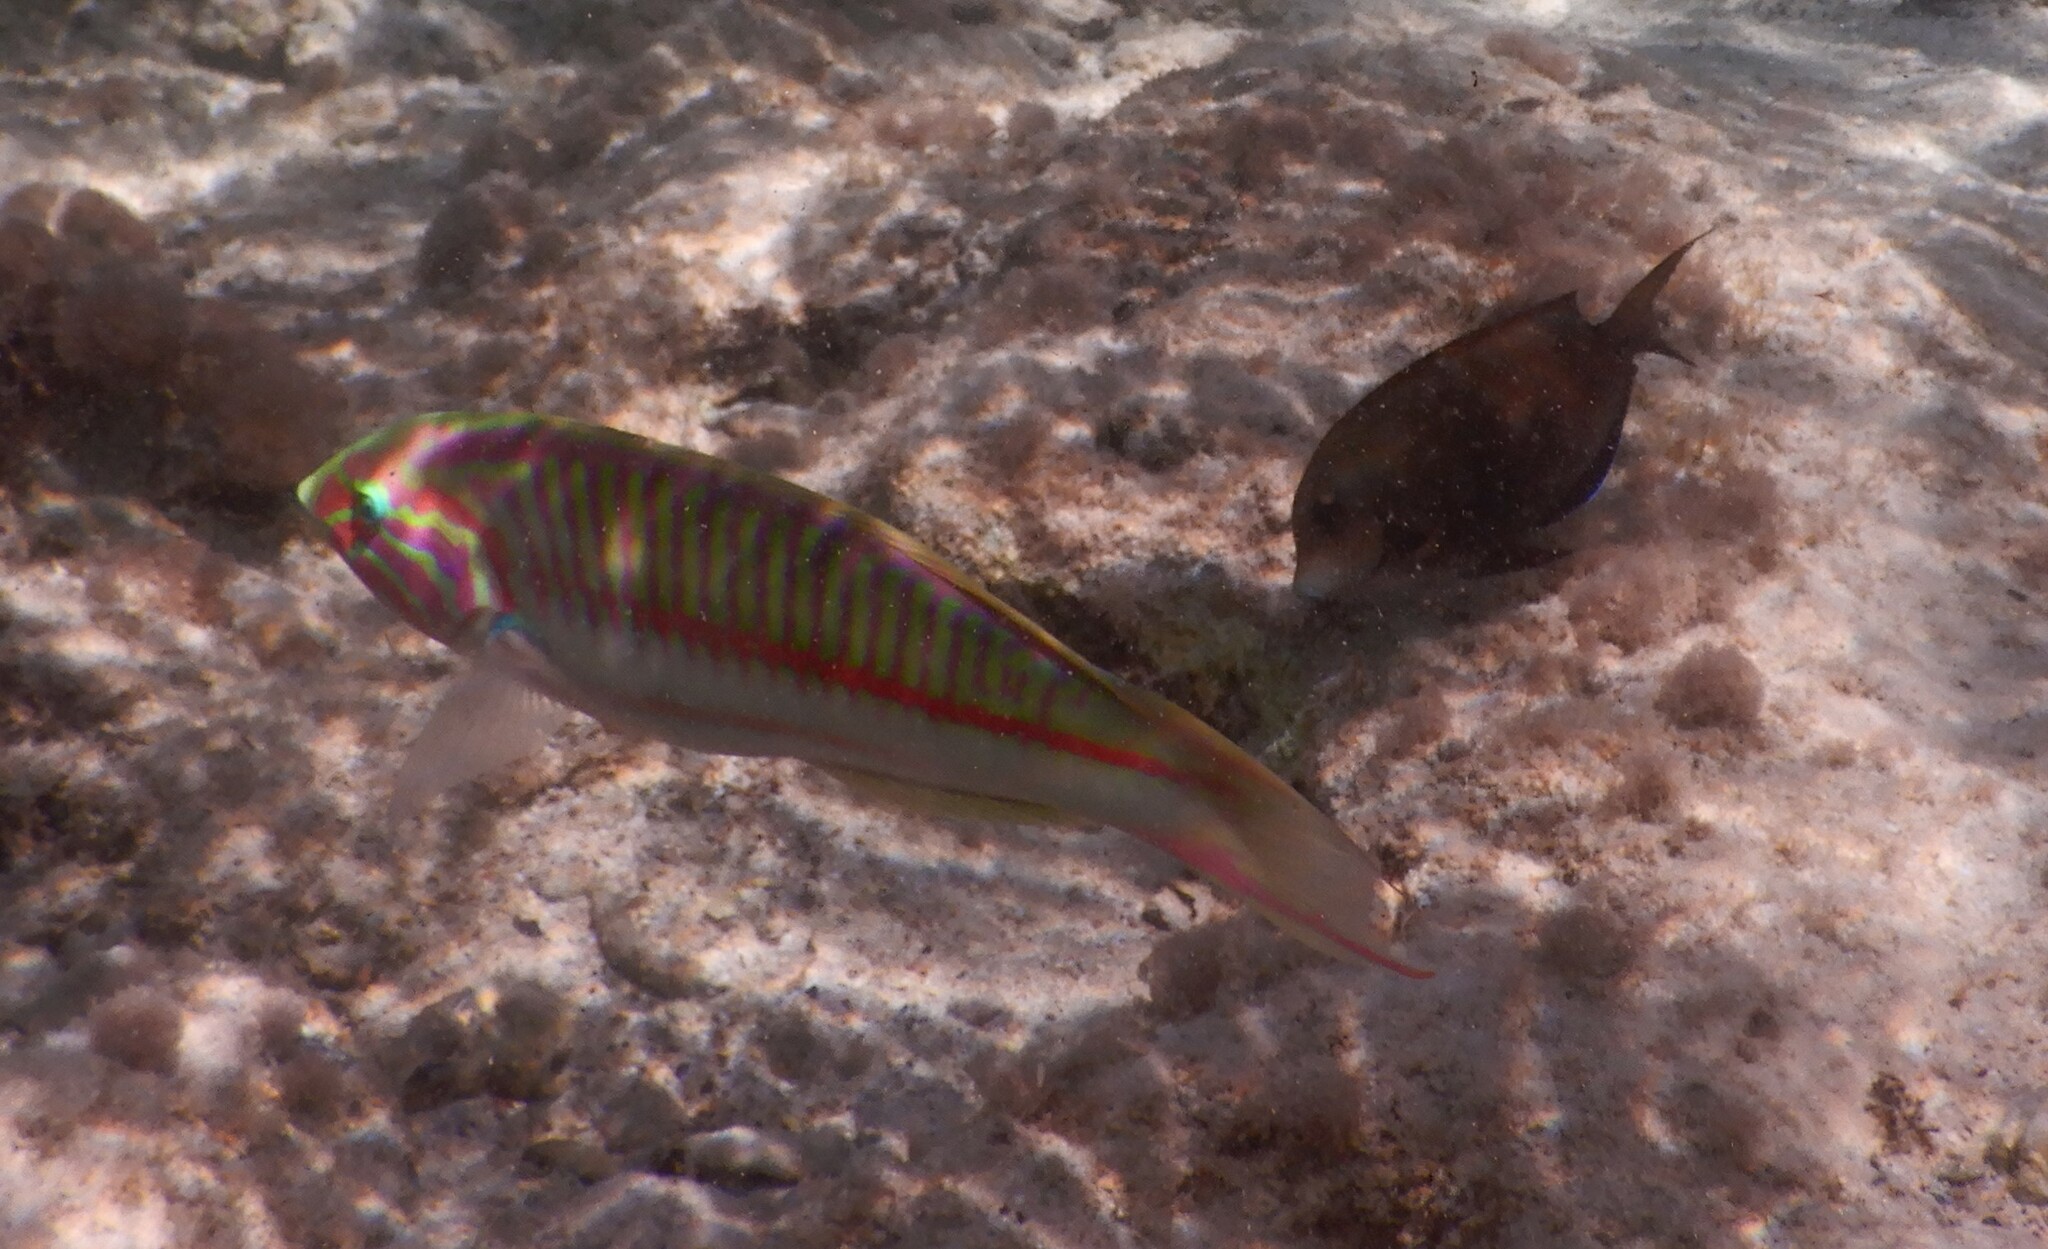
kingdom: Animalia
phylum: Chordata
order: Perciformes
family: Labridae
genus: Thalassoma
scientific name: Thalassoma rueppellii
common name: Klunzinger's wrasse
